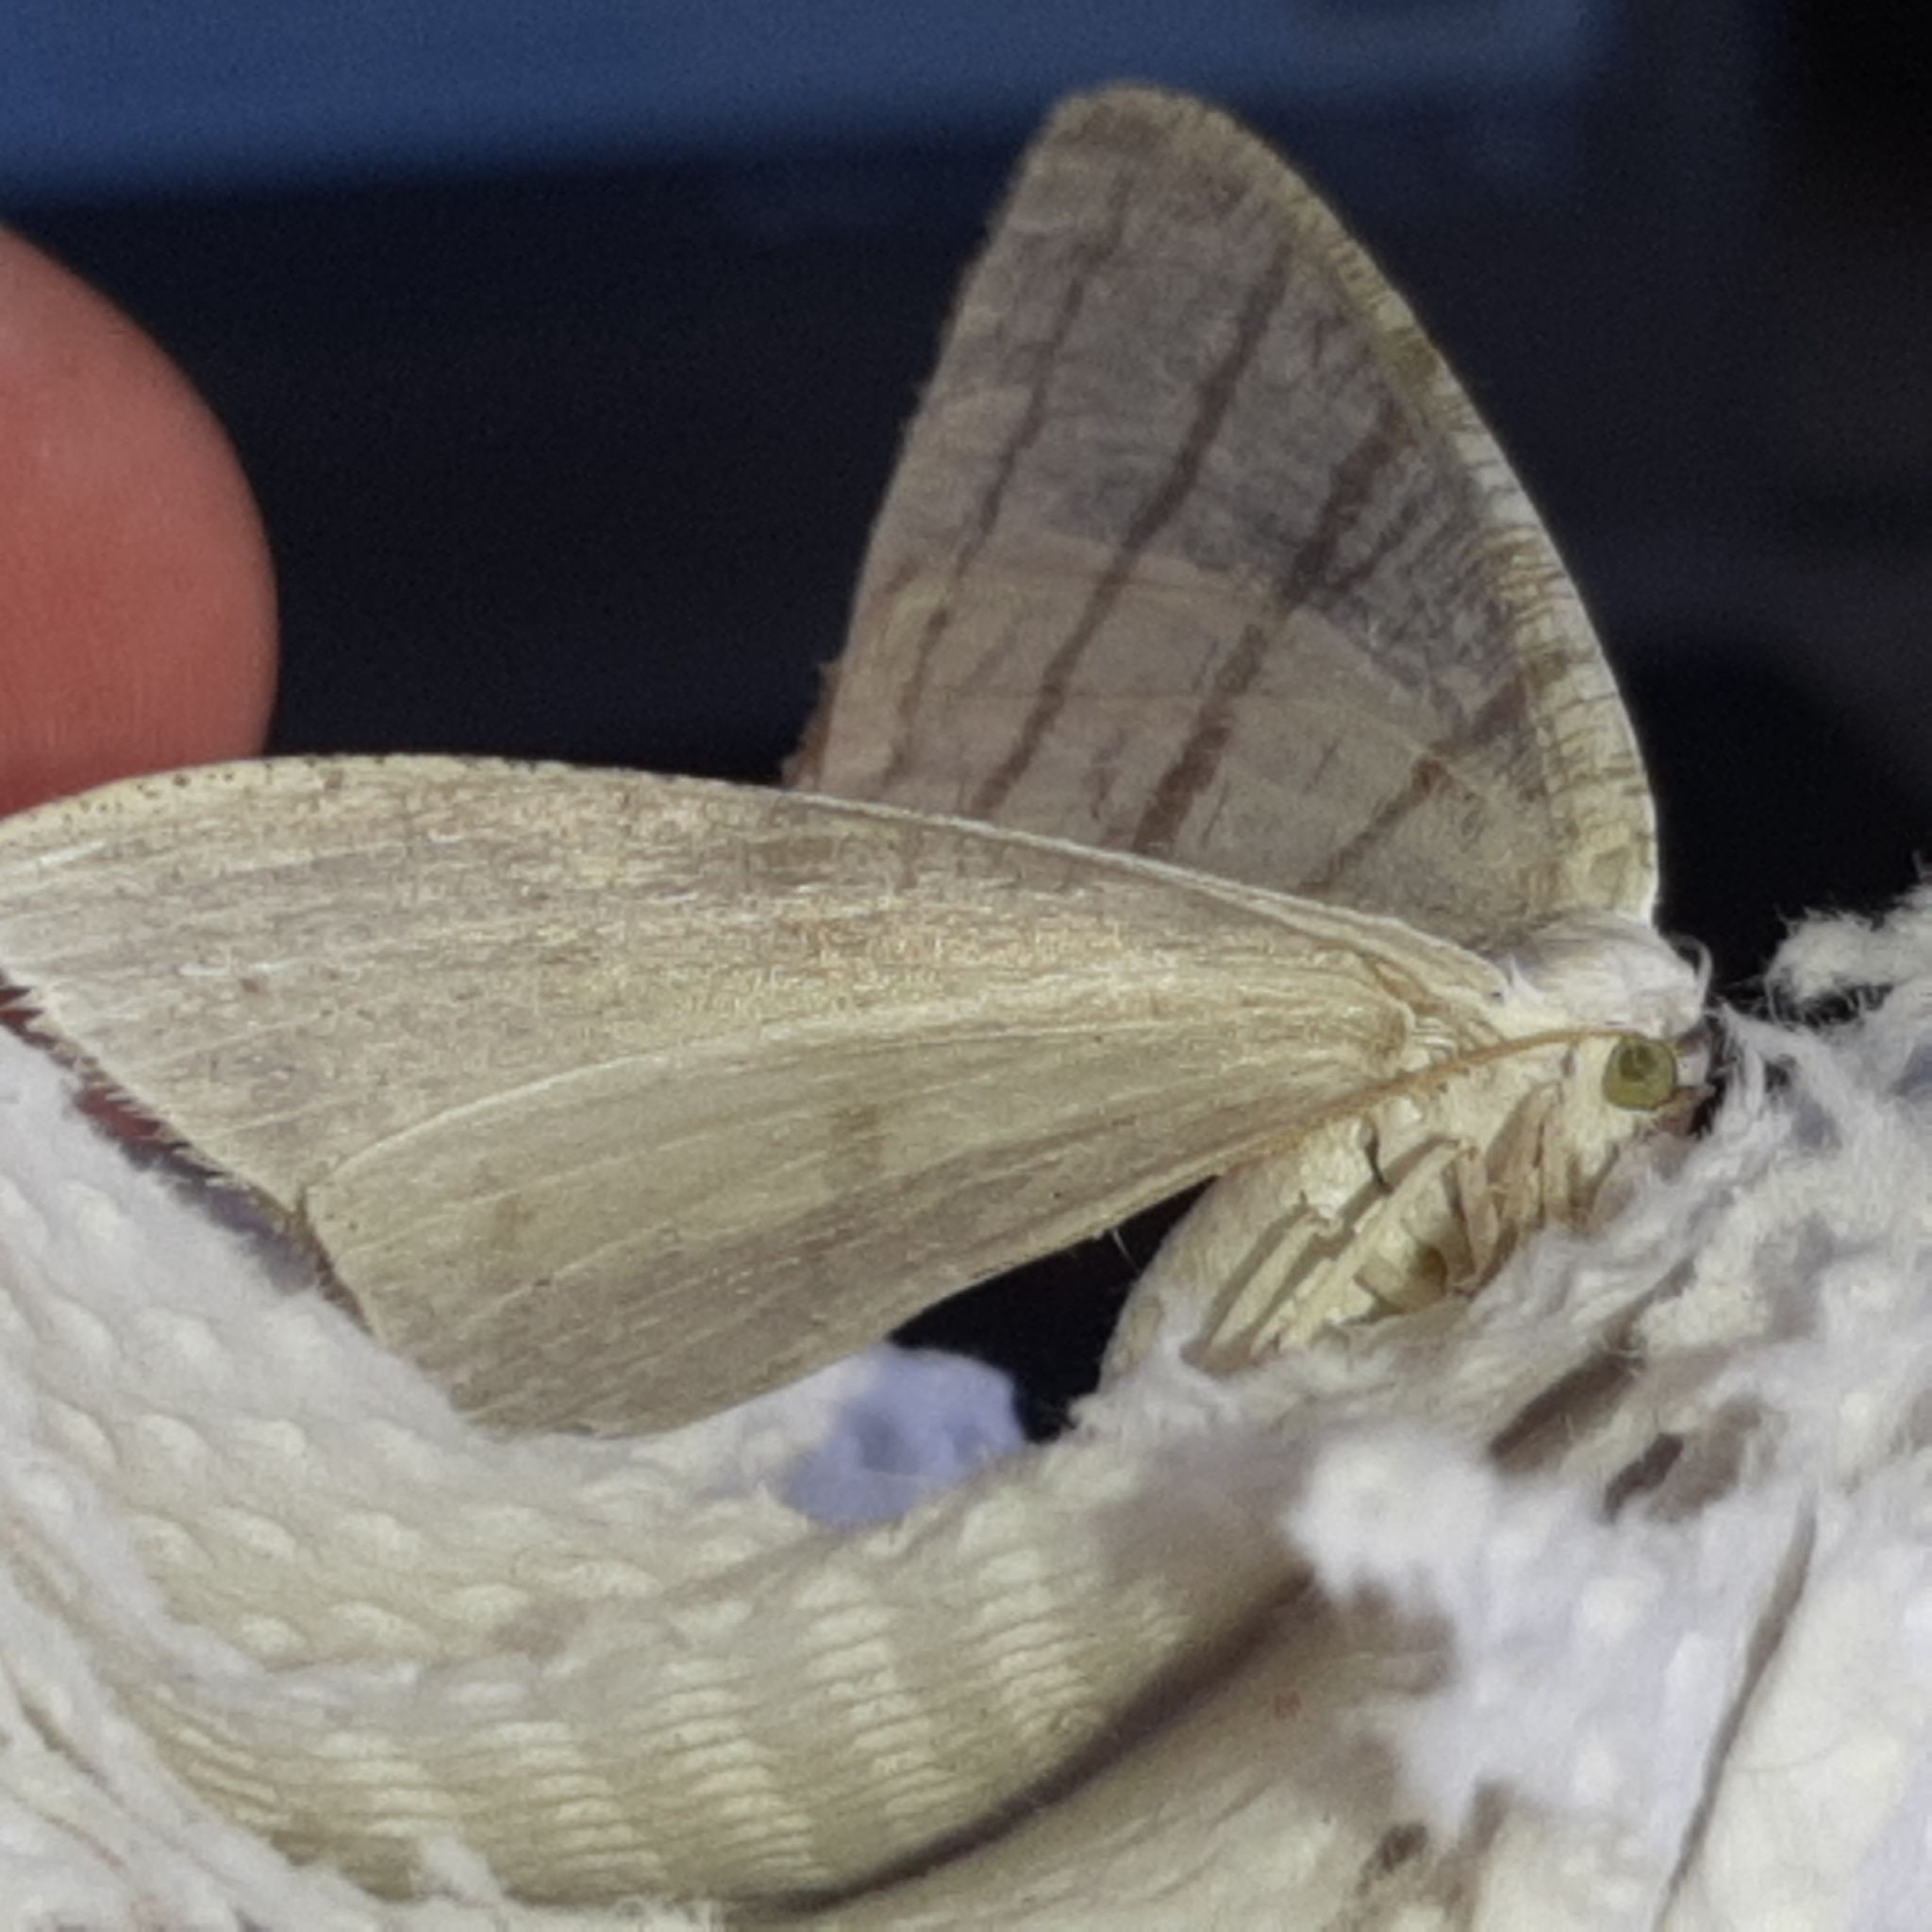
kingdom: Animalia
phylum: Arthropoda
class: Insecta
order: Lepidoptera
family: Geometridae
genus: Brachurapteryx
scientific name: Brachurapteryx tesserata
